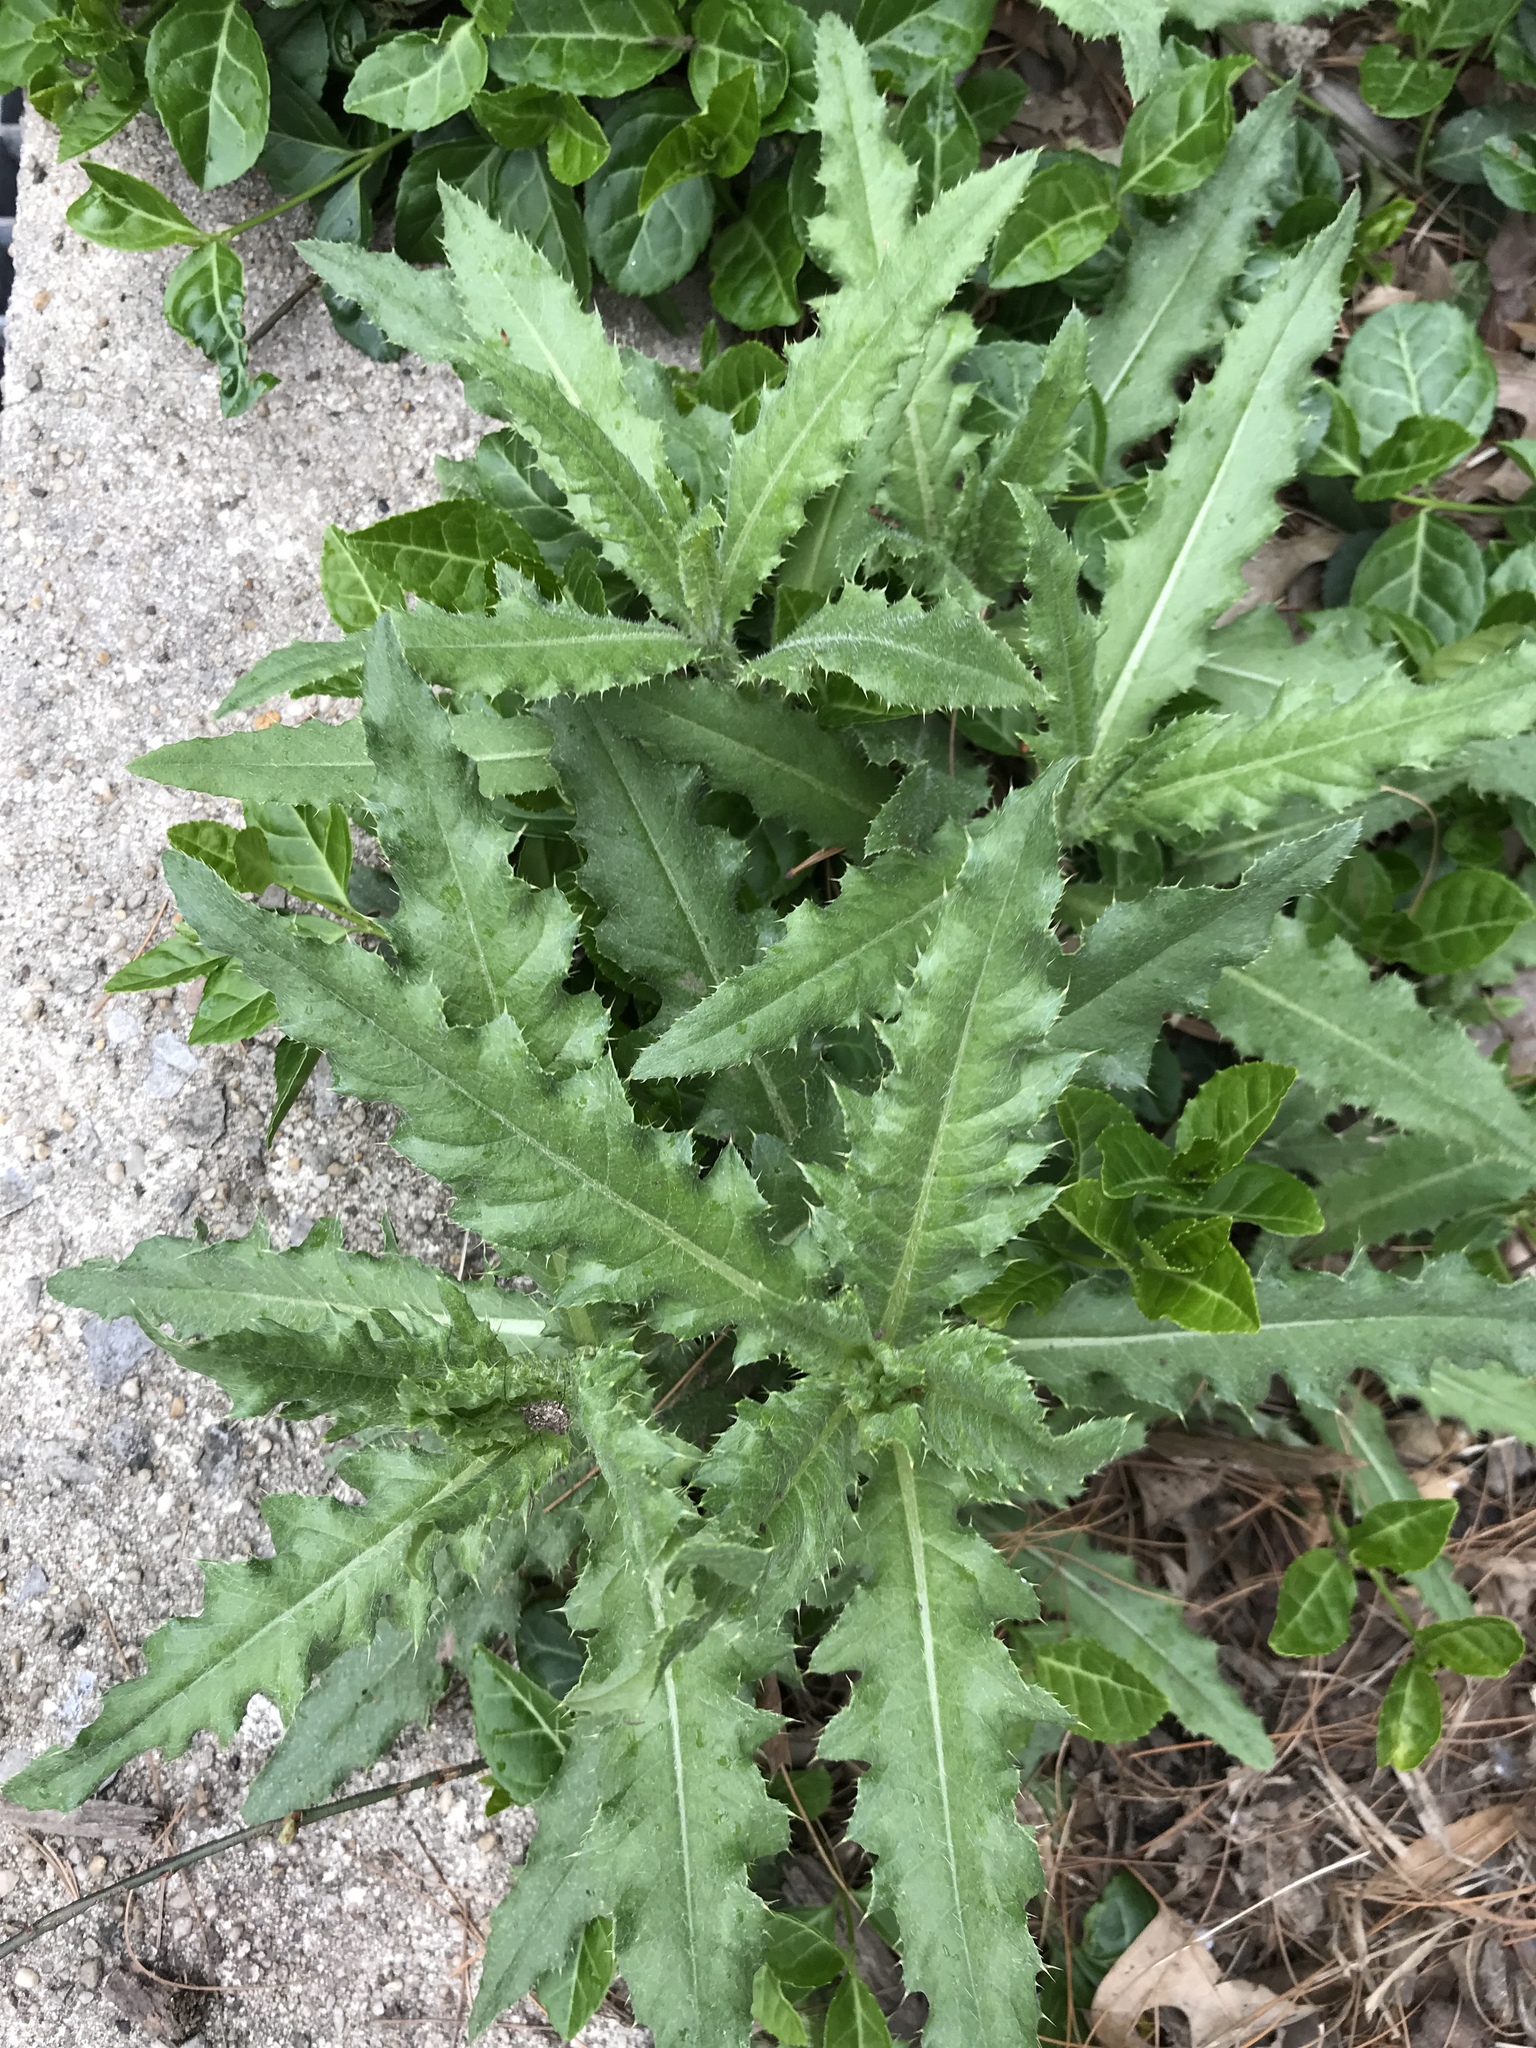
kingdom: Plantae
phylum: Tracheophyta
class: Magnoliopsida
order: Asterales
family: Asteraceae
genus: Cirsium
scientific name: Cirsium
